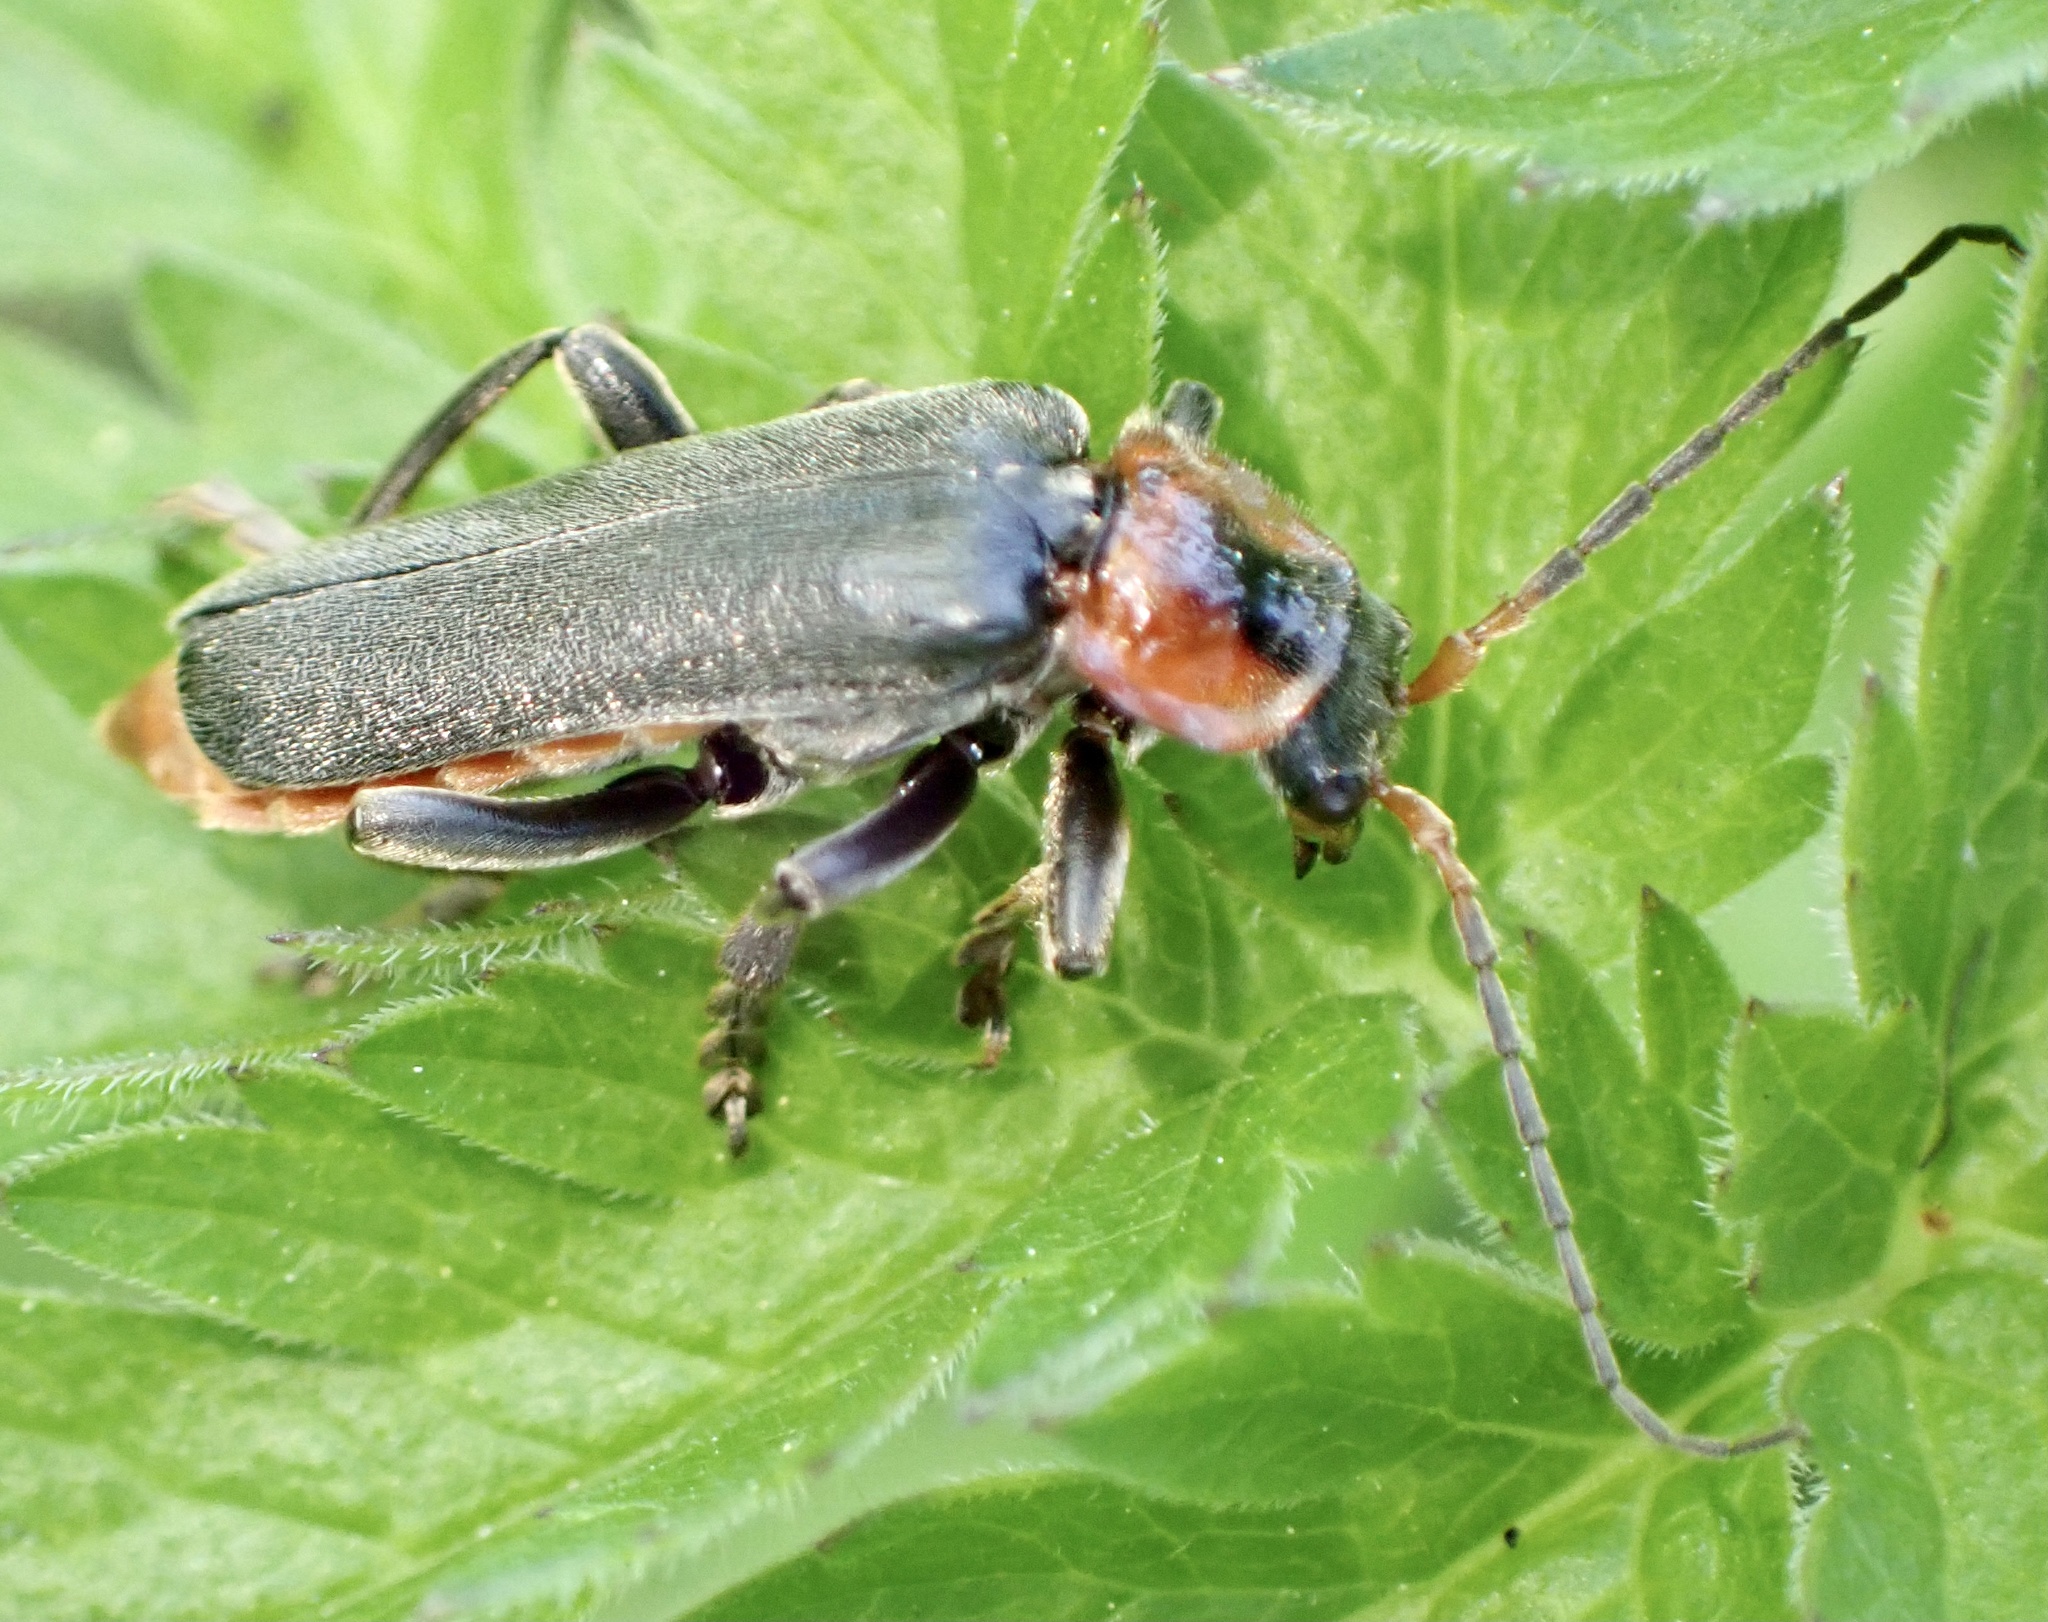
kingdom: Animalia
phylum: Arthropoda
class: Insecta
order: Coleoptera
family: Cantharidae
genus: Cantharis
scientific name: Cantharis fusca
